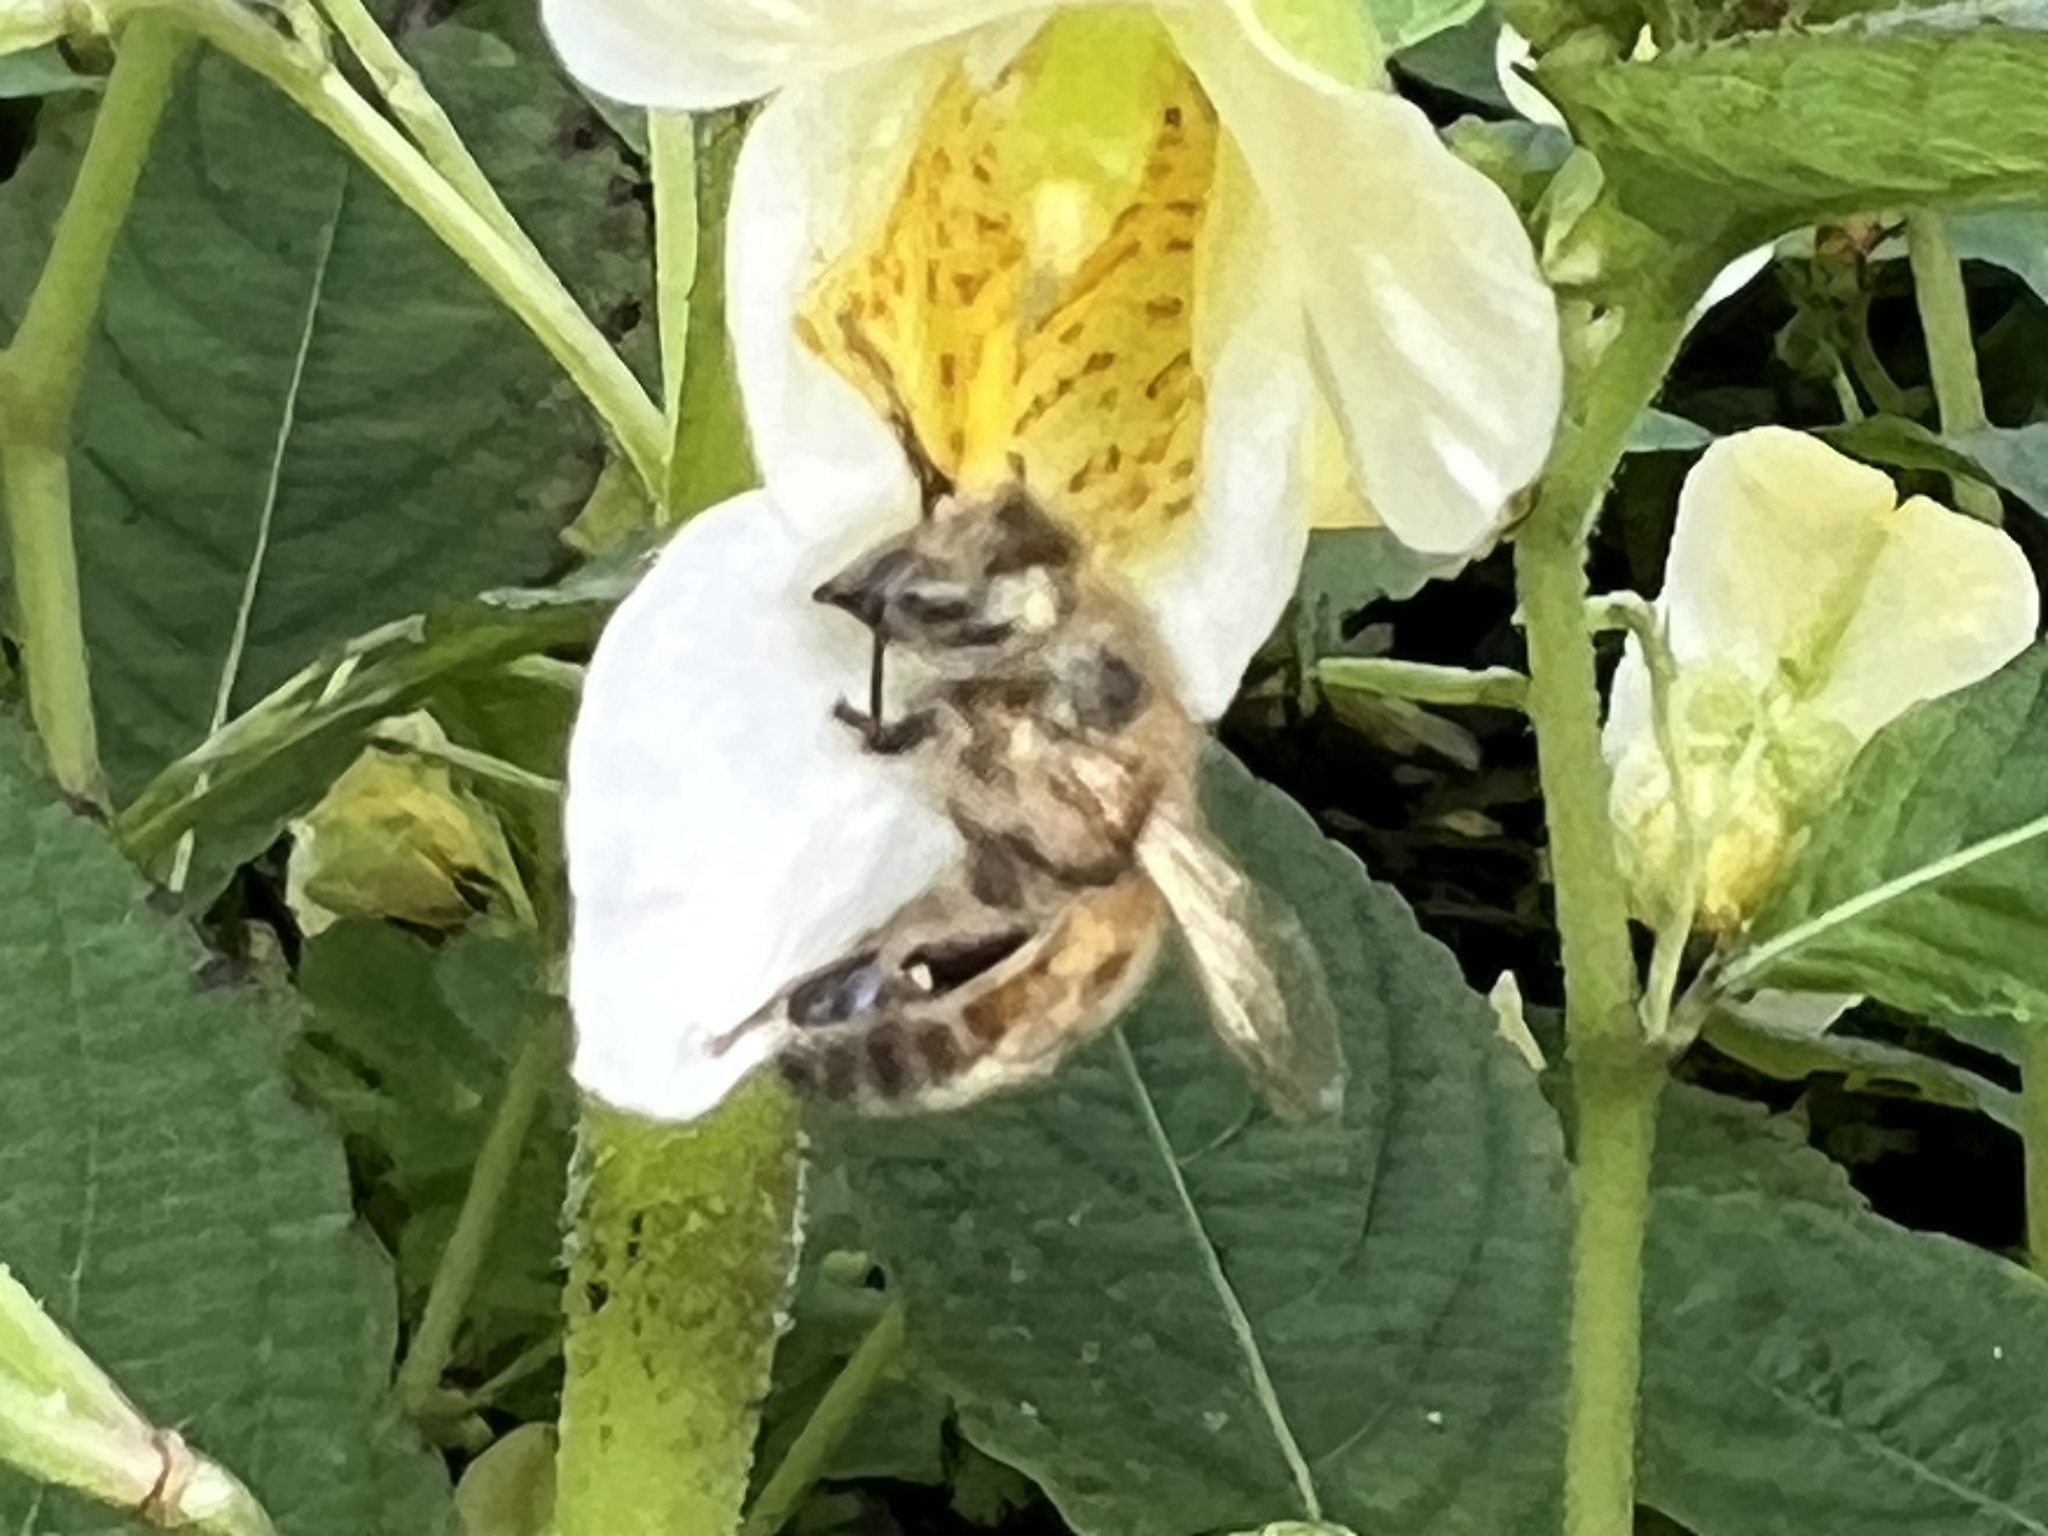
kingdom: Animalia
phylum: Arthropoda
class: Insecta
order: Hymenoptera
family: Apidae
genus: Apis
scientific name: Apis mellifera
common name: Honey bee
